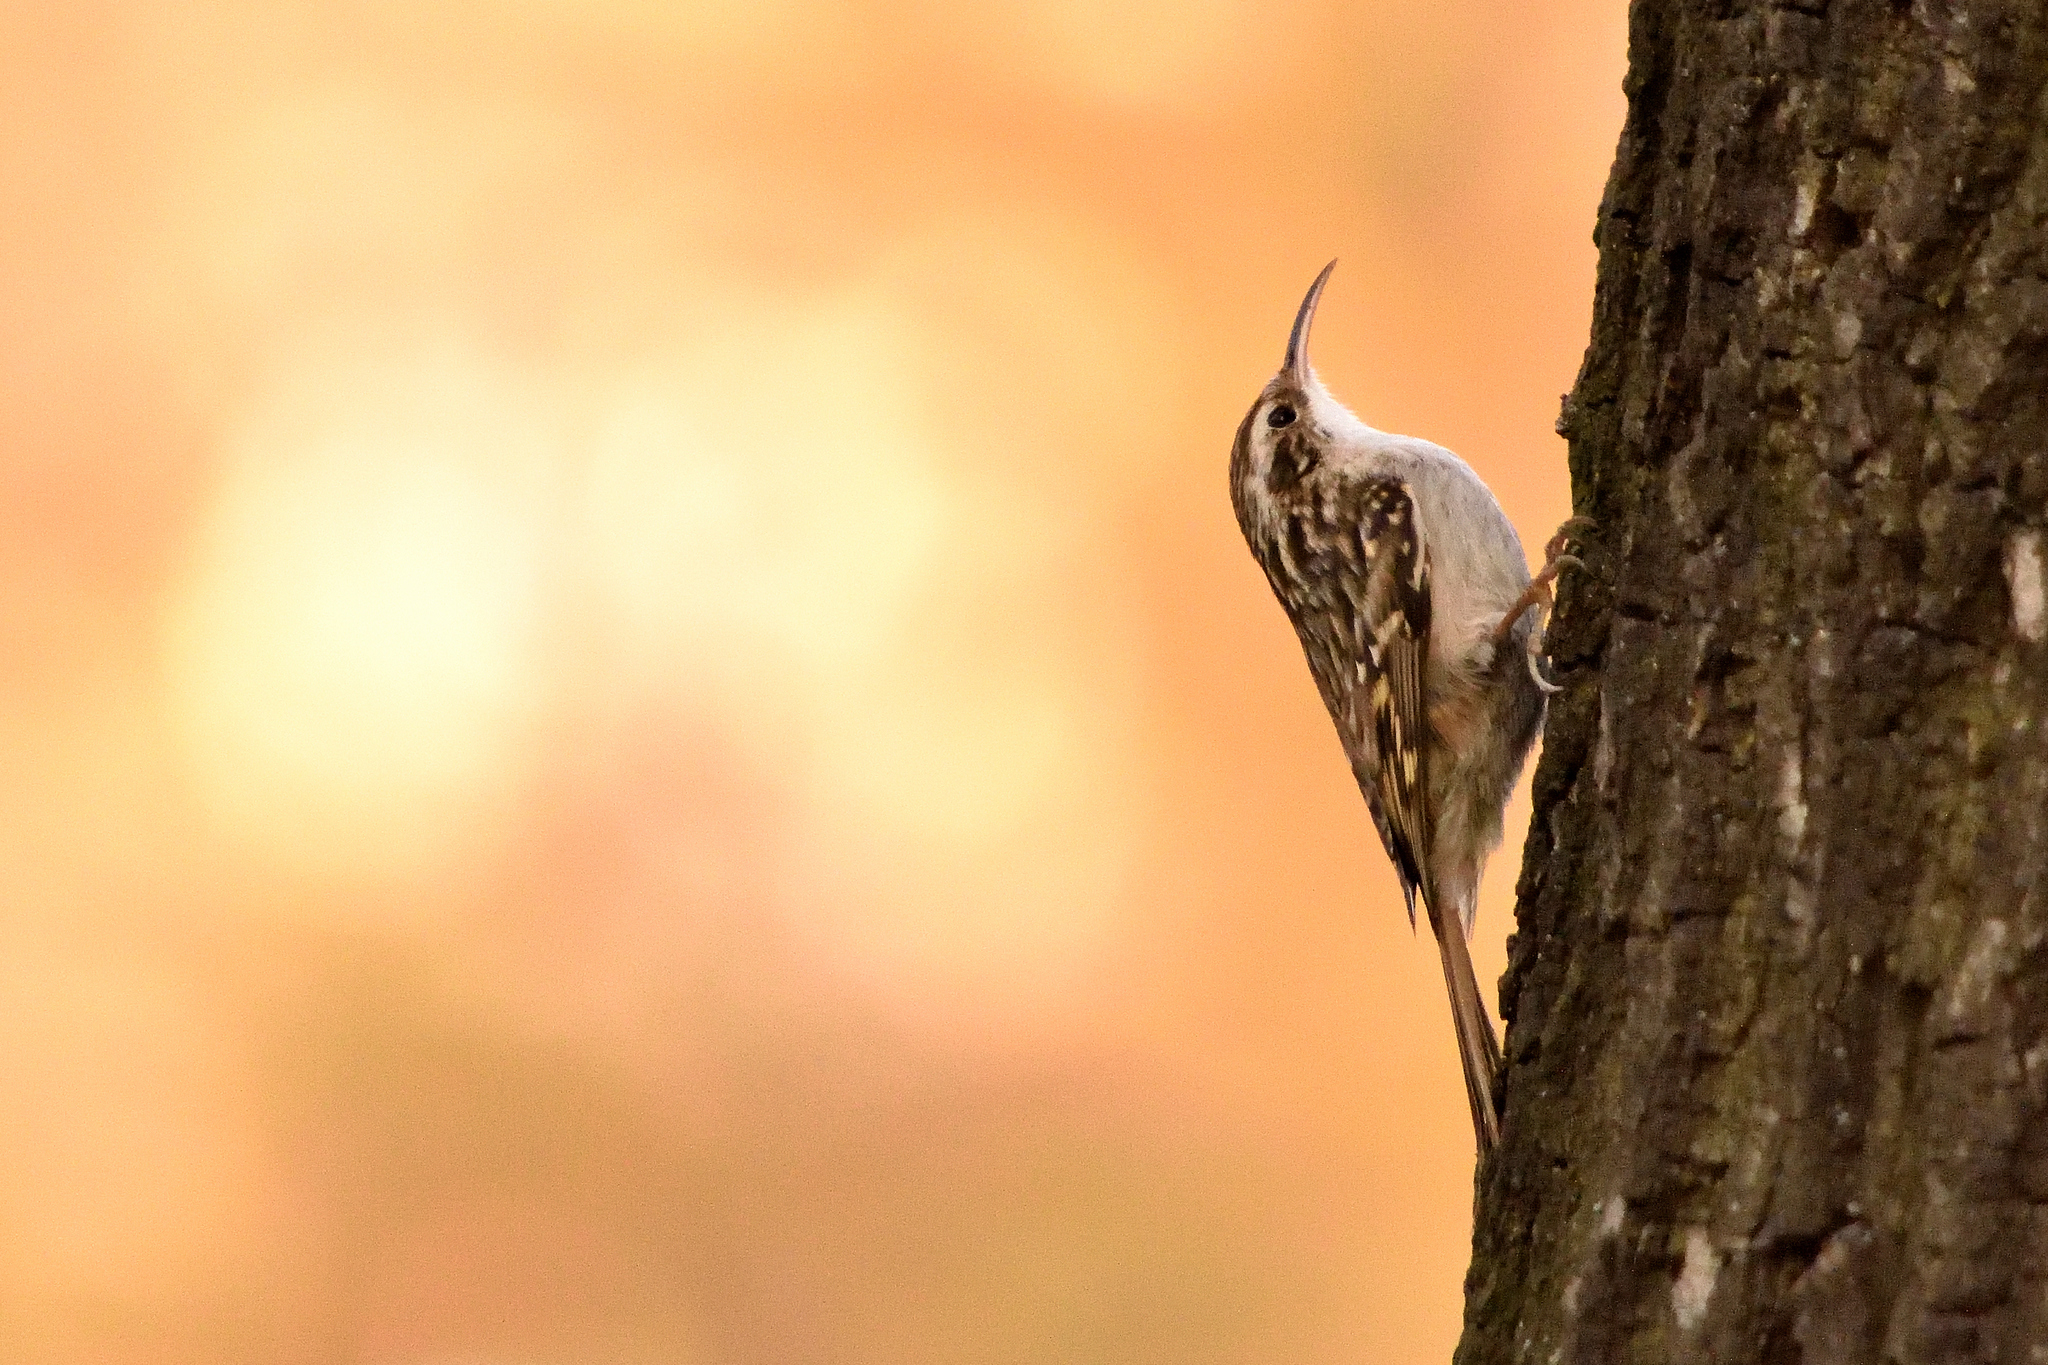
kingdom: Animalia
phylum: Chordata
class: Aves
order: Passeriformes
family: Certhiidae
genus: Certhia
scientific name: Certhia brachydactyla
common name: Short-toed treecreeper
